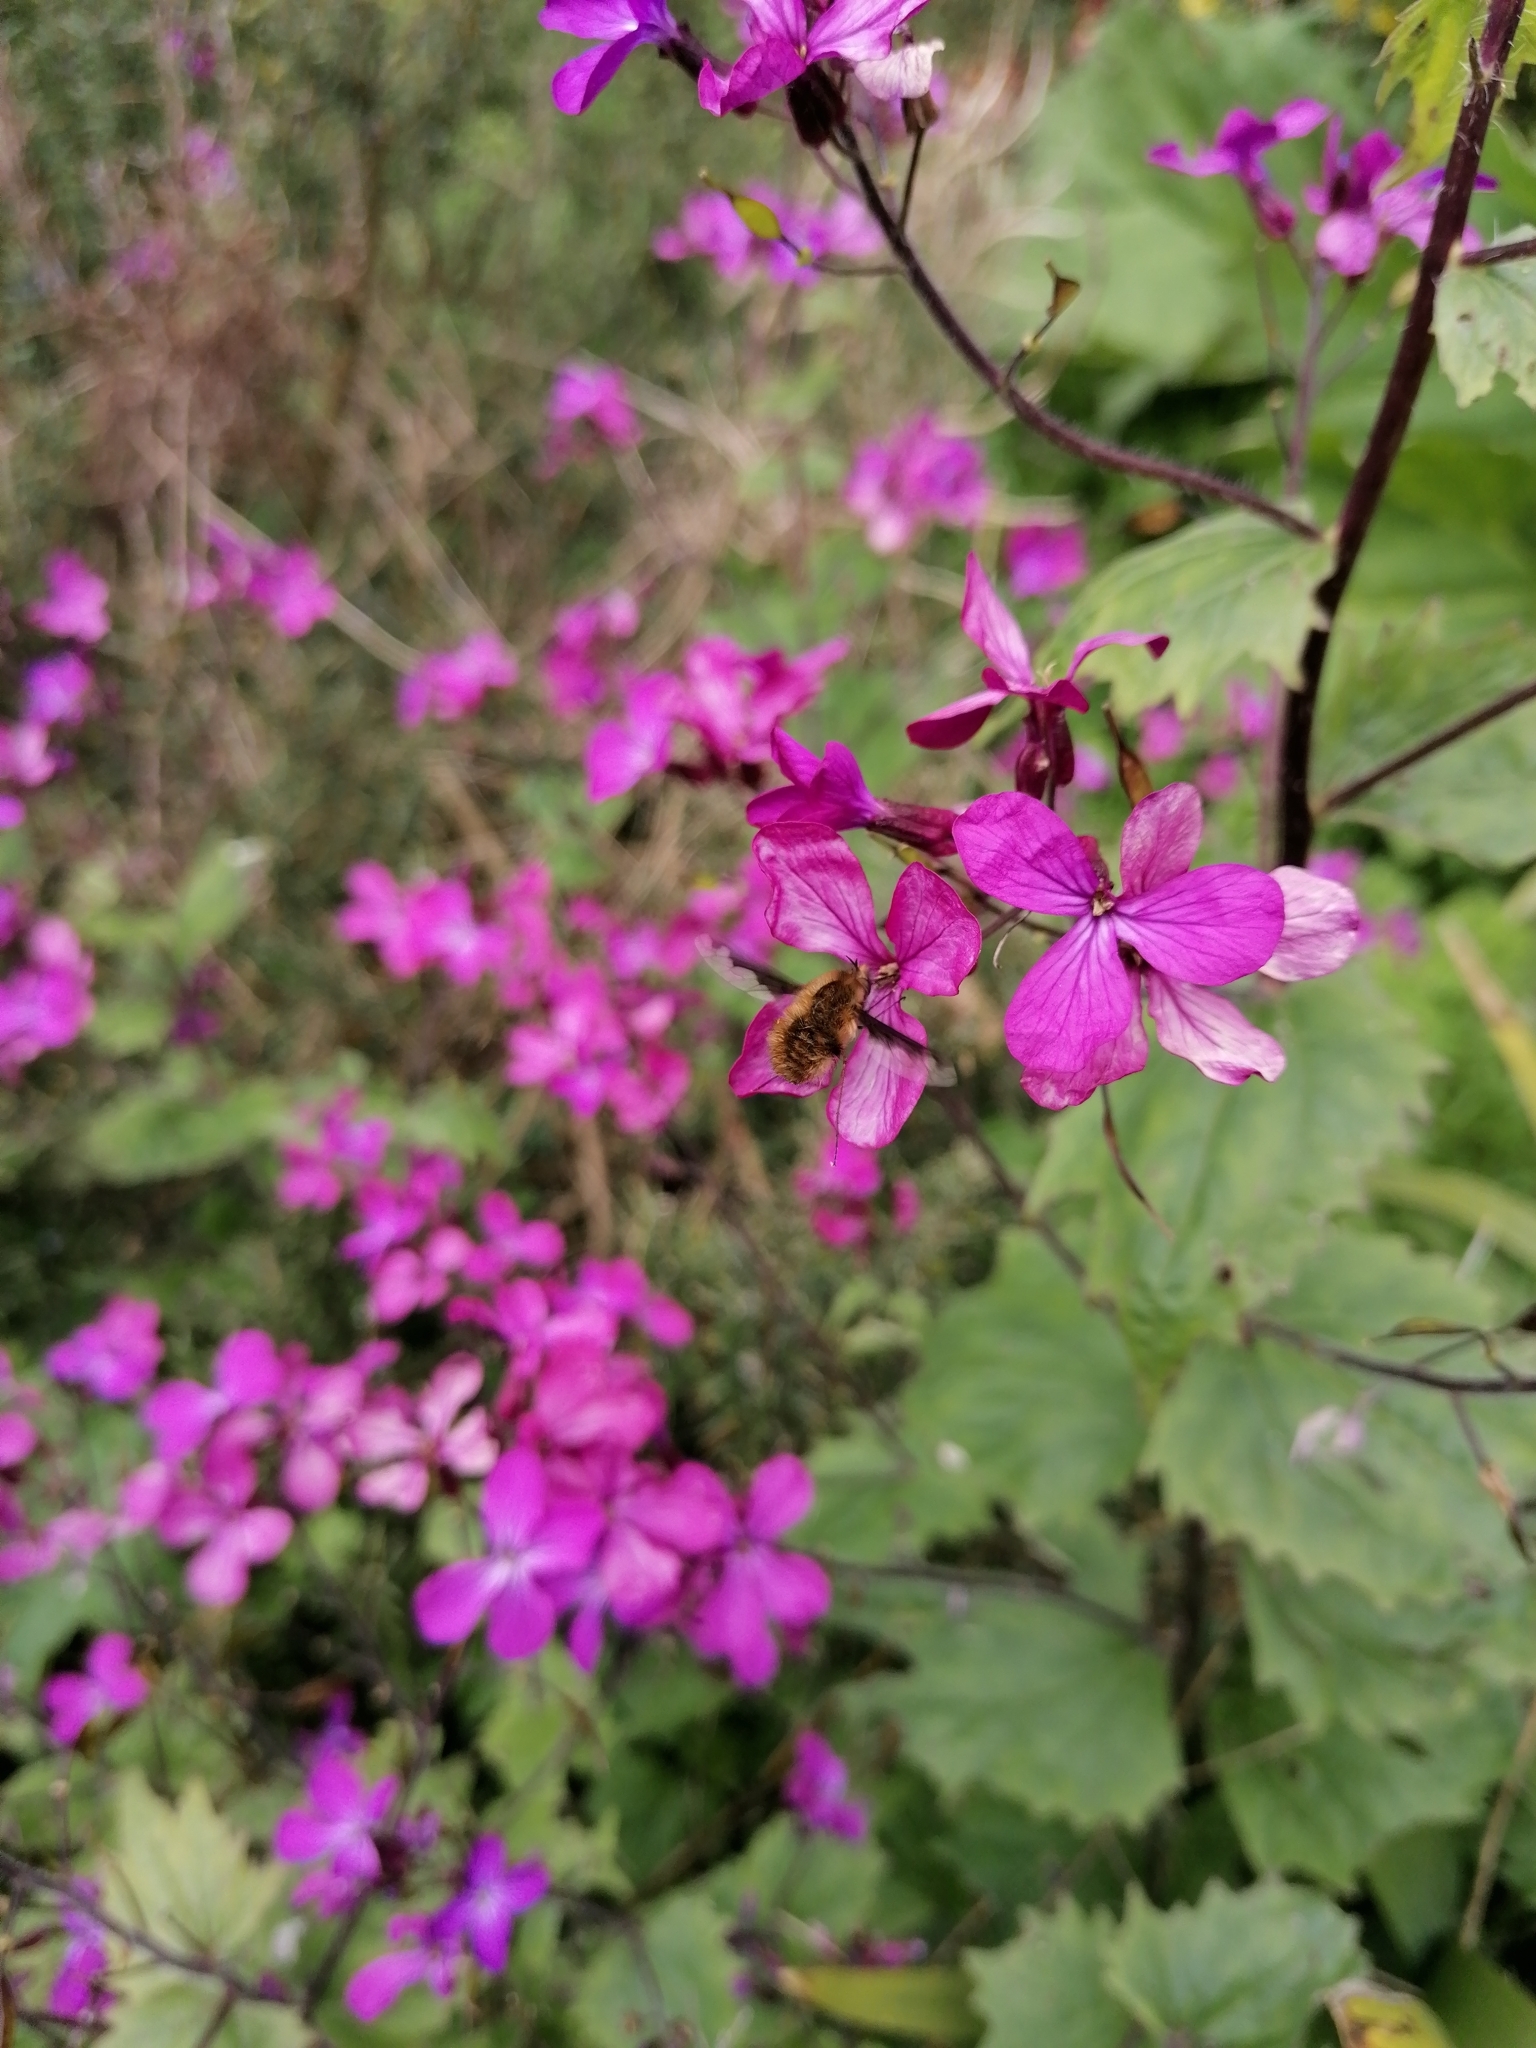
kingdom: Animalia
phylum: Arthropoda
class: Insecta
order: Diptera
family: Bombyliidae
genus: Bombylius
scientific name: Bombylius major
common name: Bee fly
